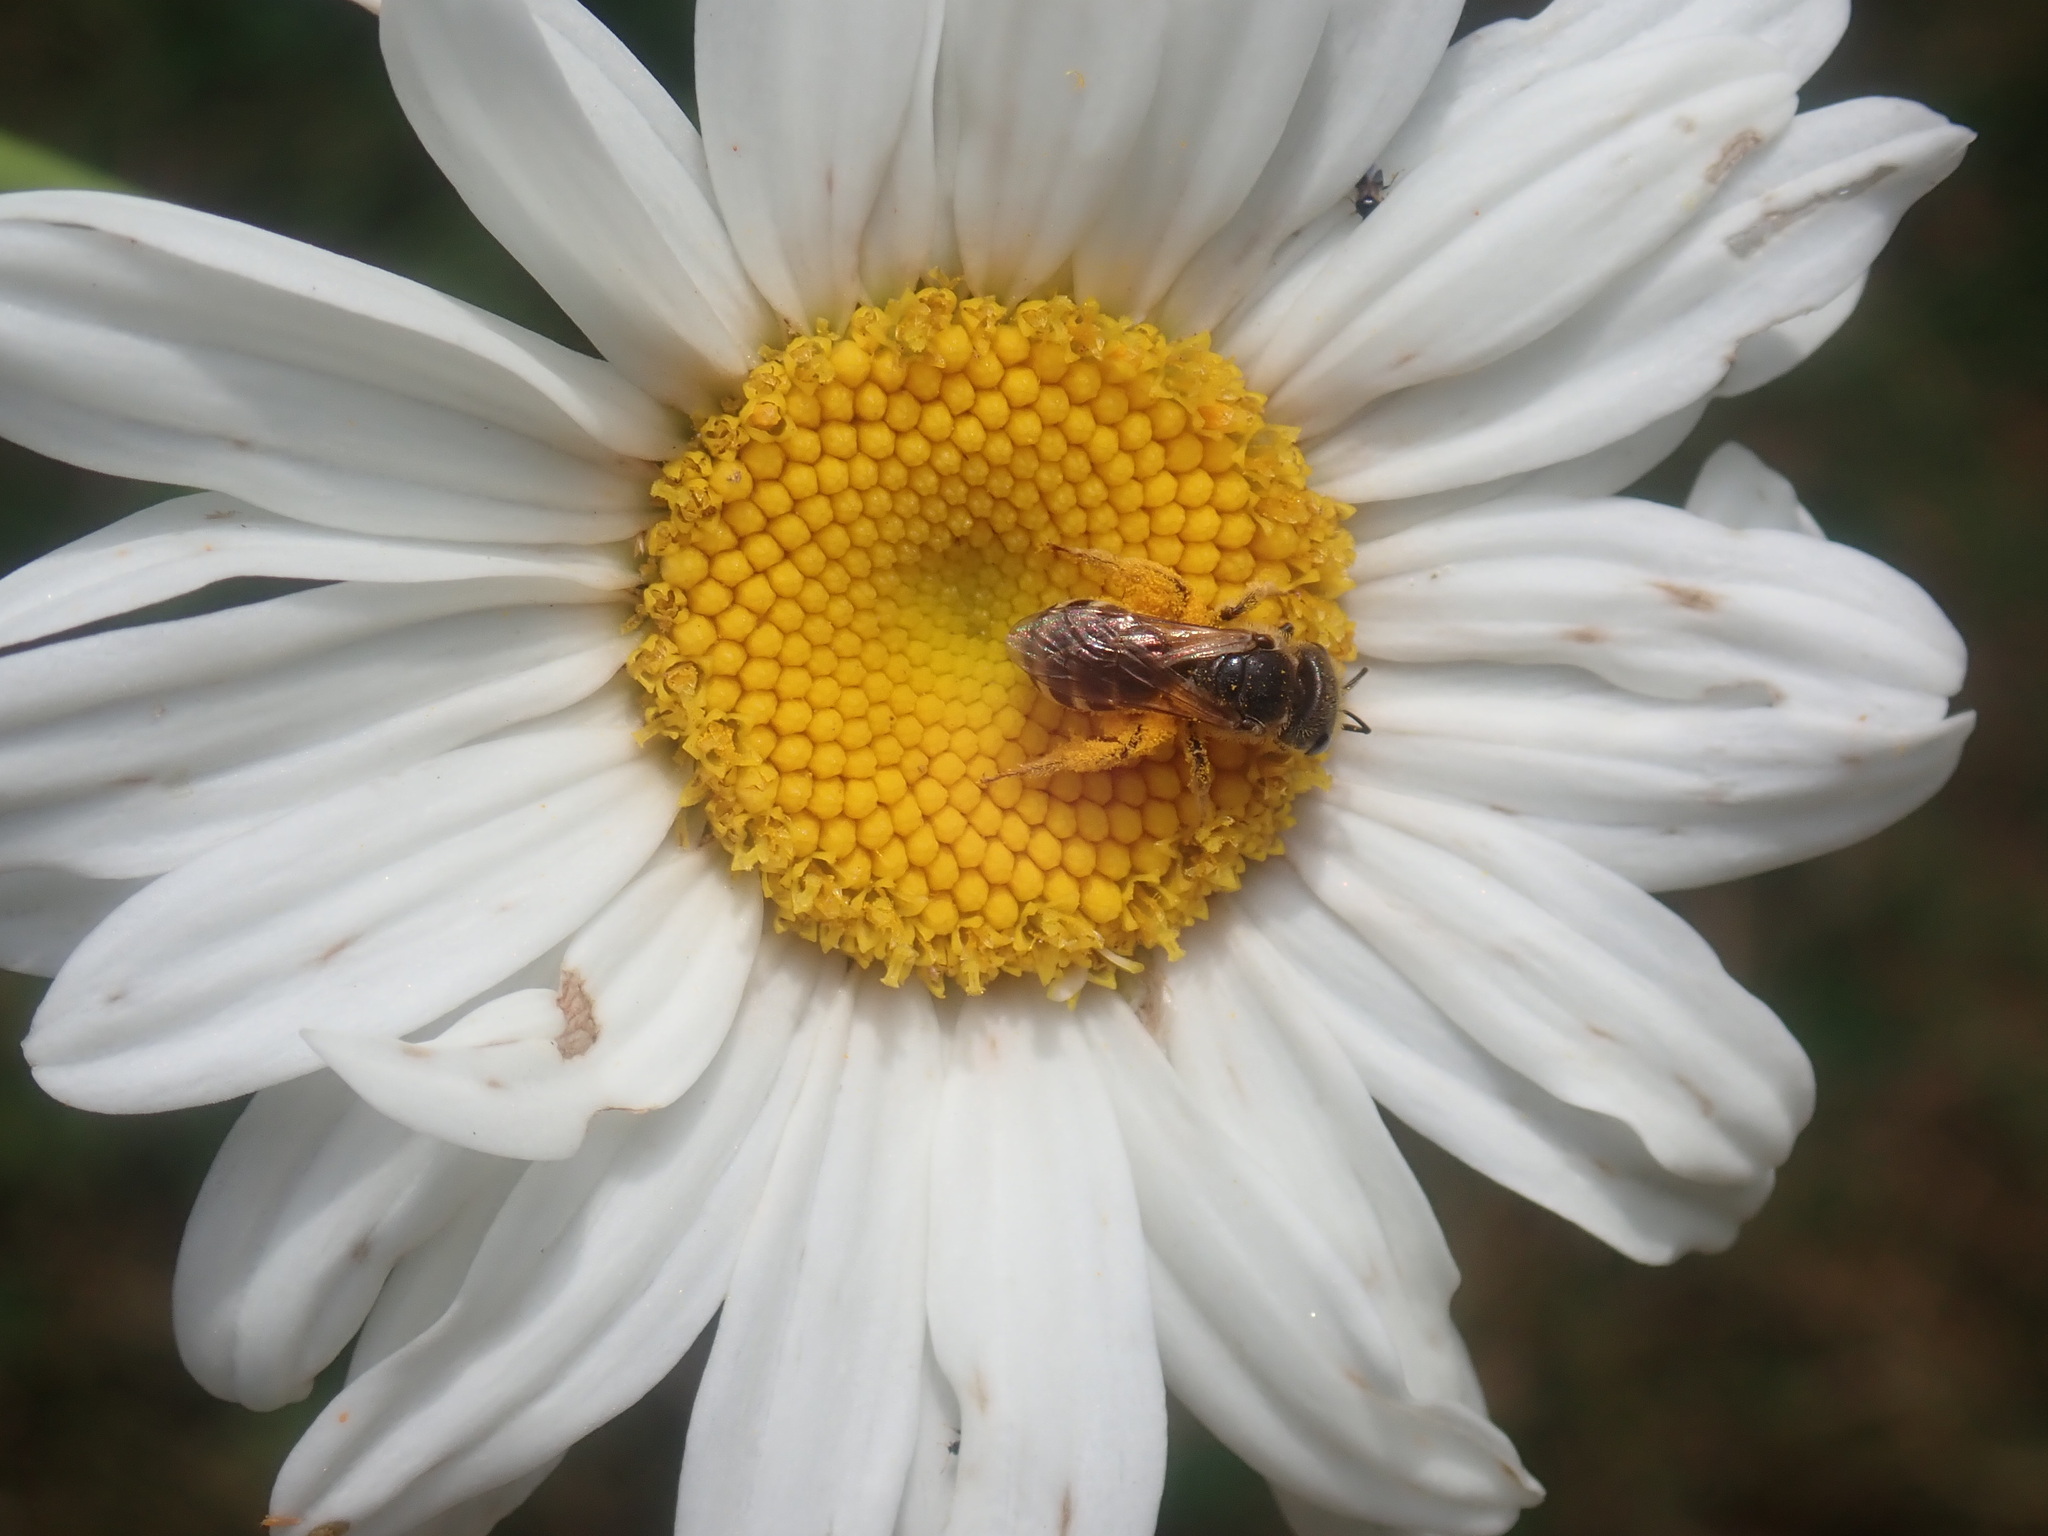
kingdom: Animalia
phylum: Arthropoda
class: Insecta
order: Hymenoptera
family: Halictidae
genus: Halictus
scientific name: Halictus ligatus
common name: Ligated furrow bee
